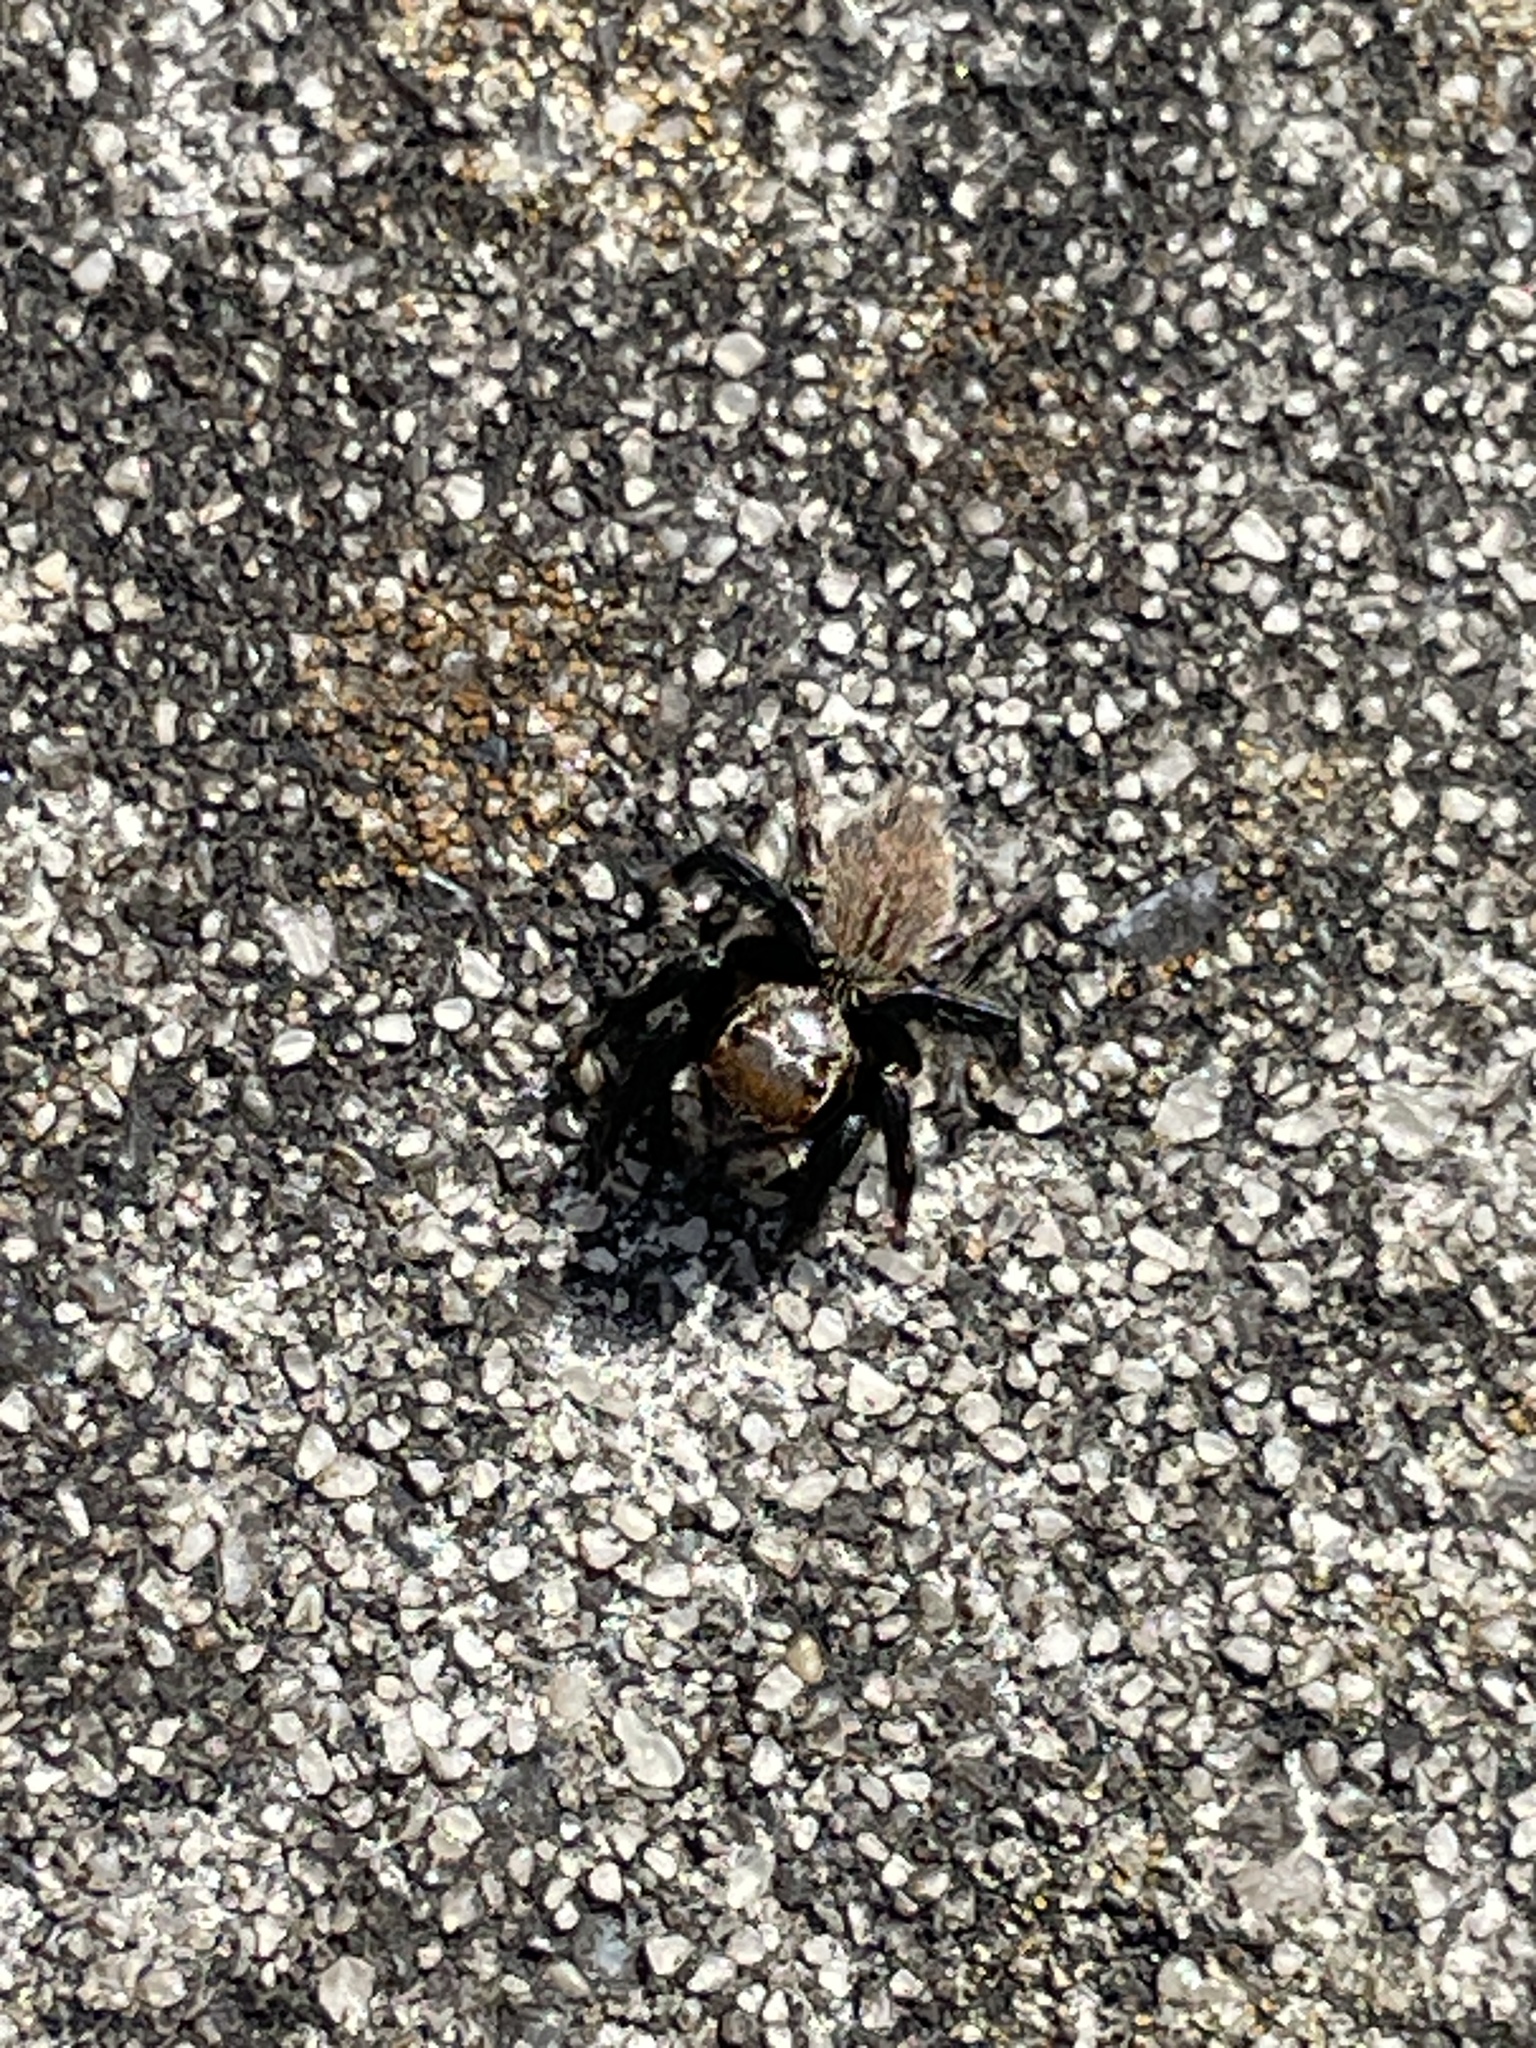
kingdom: Animalia
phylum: Arthropoda
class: Arachnida
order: Araneae
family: Salticidae
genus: Maratus
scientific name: Maratus griseus
